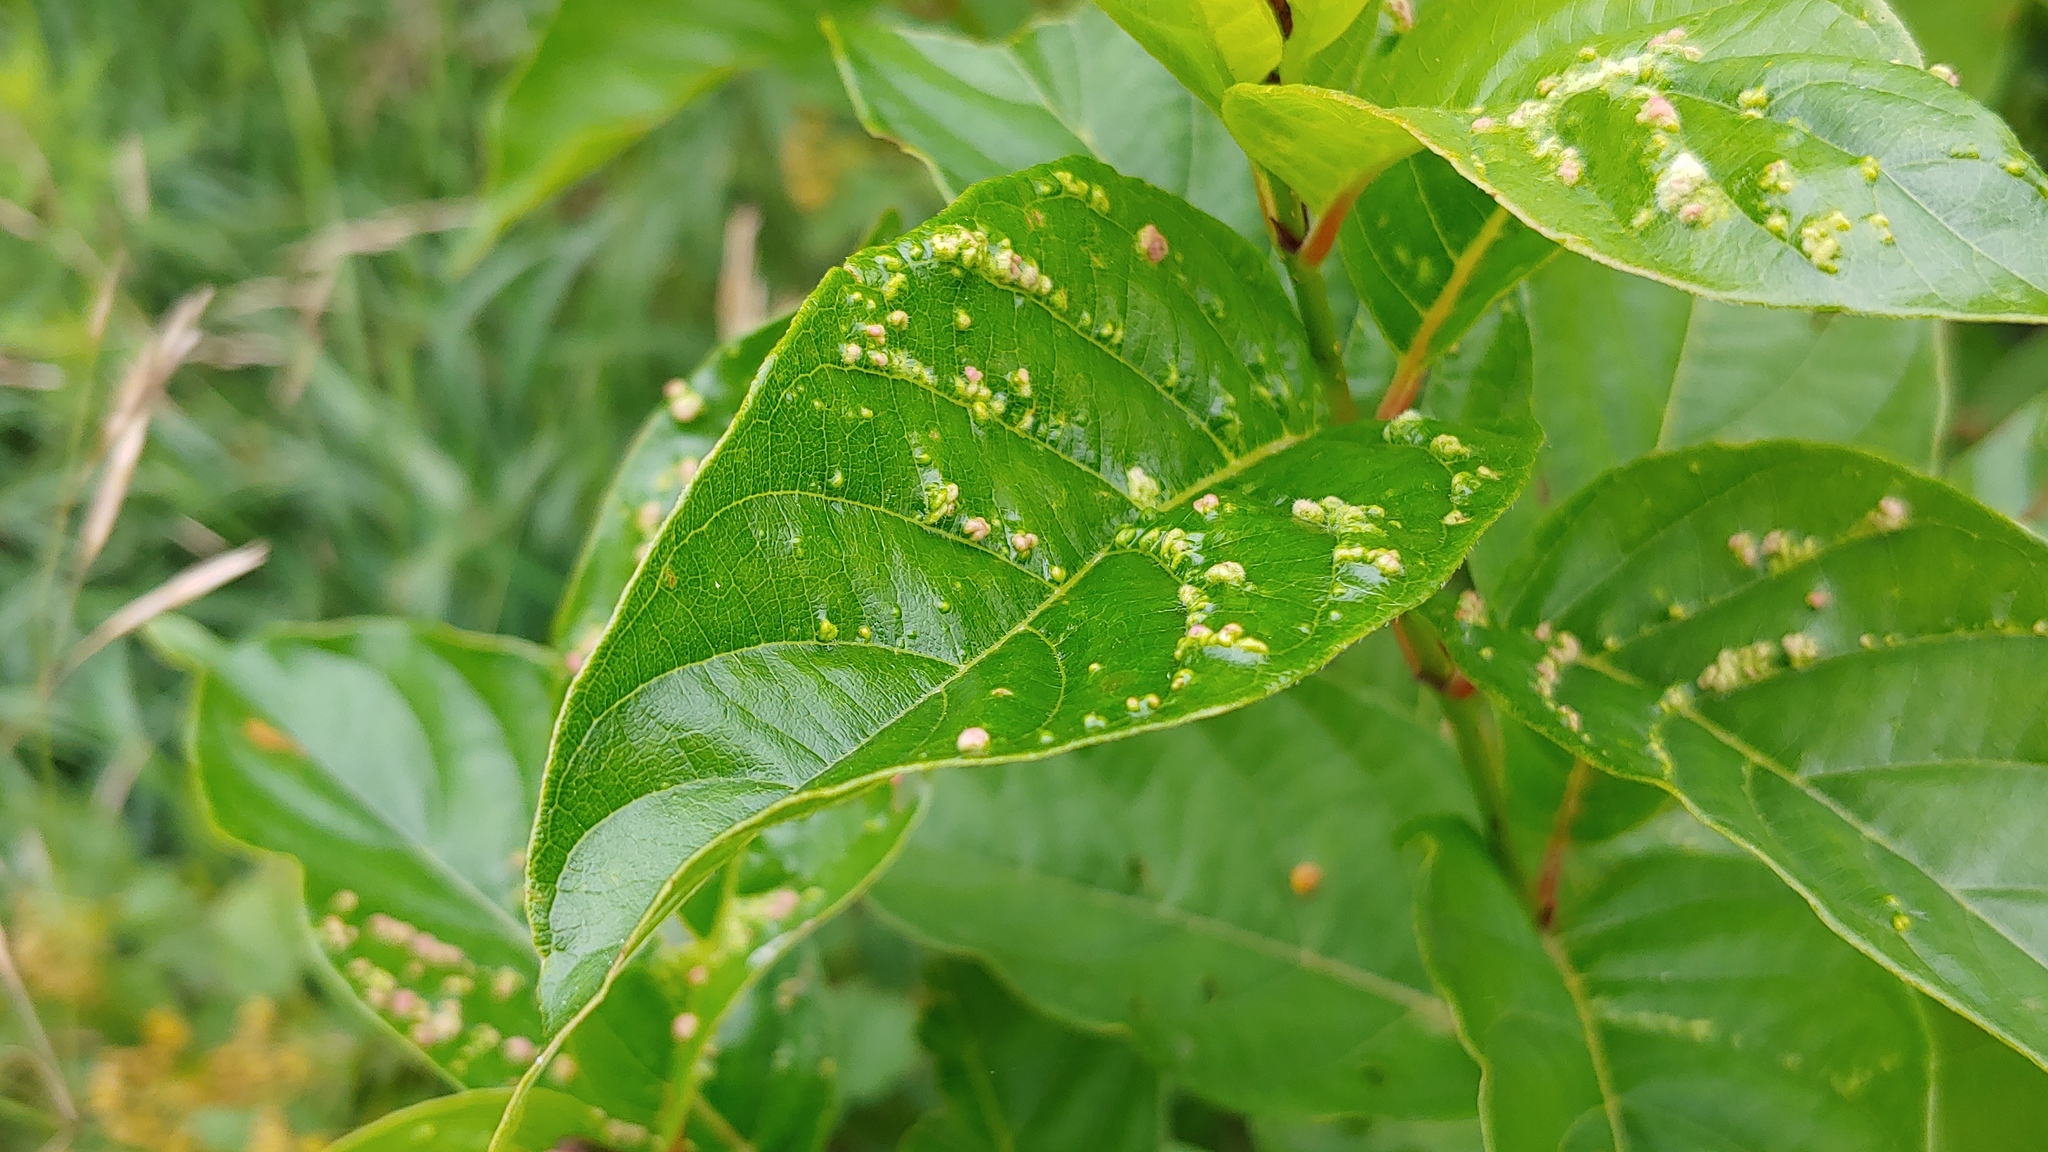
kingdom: Animalia
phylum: Arthropoda
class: Arachnida
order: Trombidiformes
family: Eriophyidae
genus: Aceria
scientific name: Aceria
